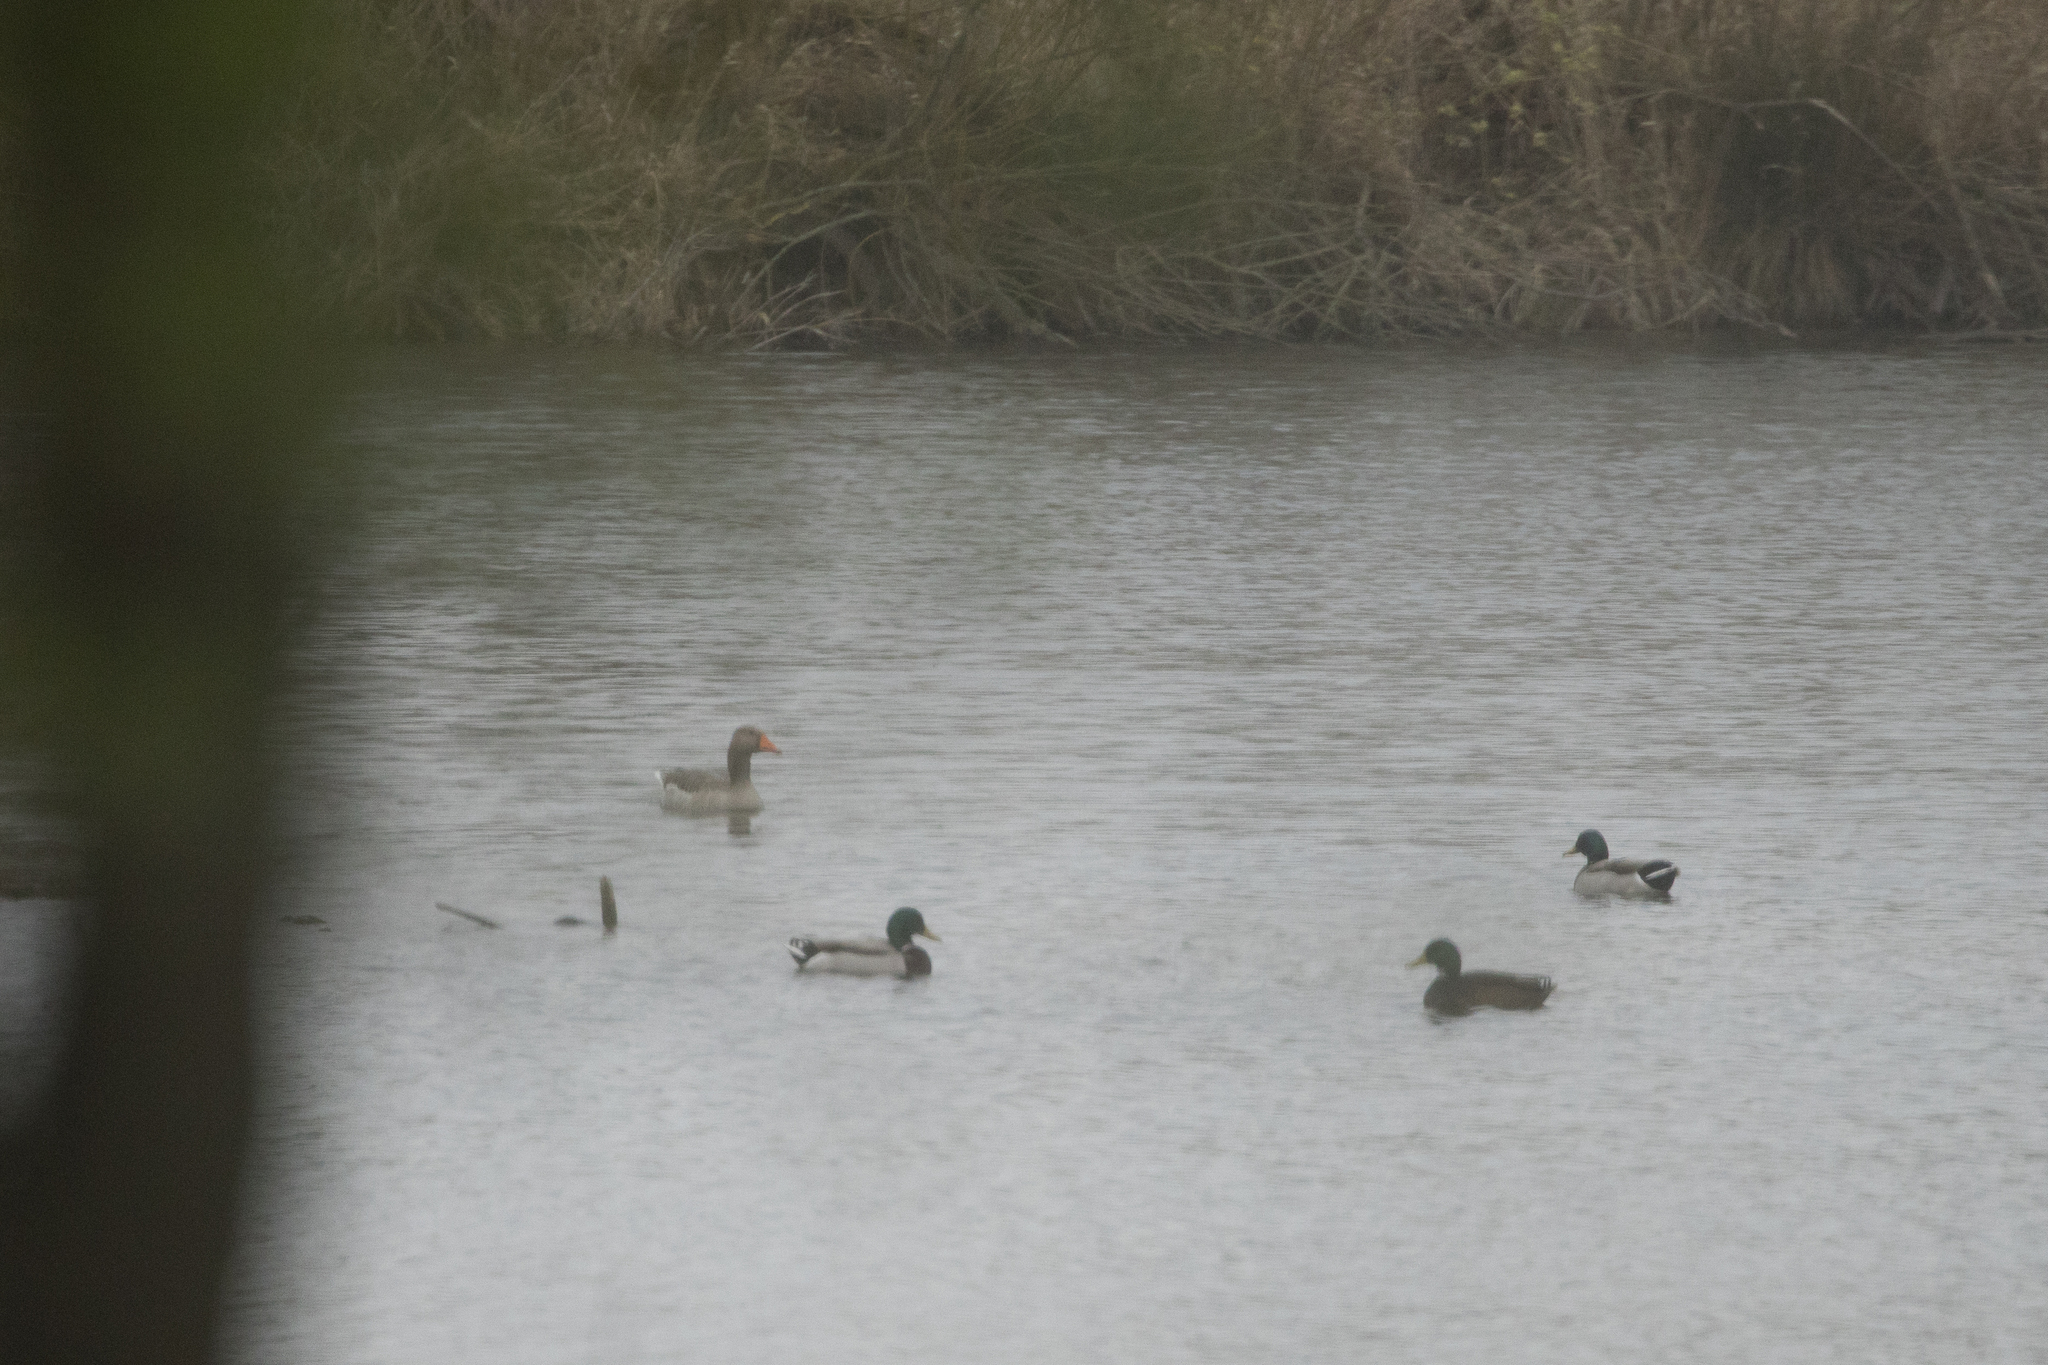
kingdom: Animalia
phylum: Chordata
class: Aves
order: Anseriformes
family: Anatidae
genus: Anas
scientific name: Anas platyrhynchos
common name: Mallard
